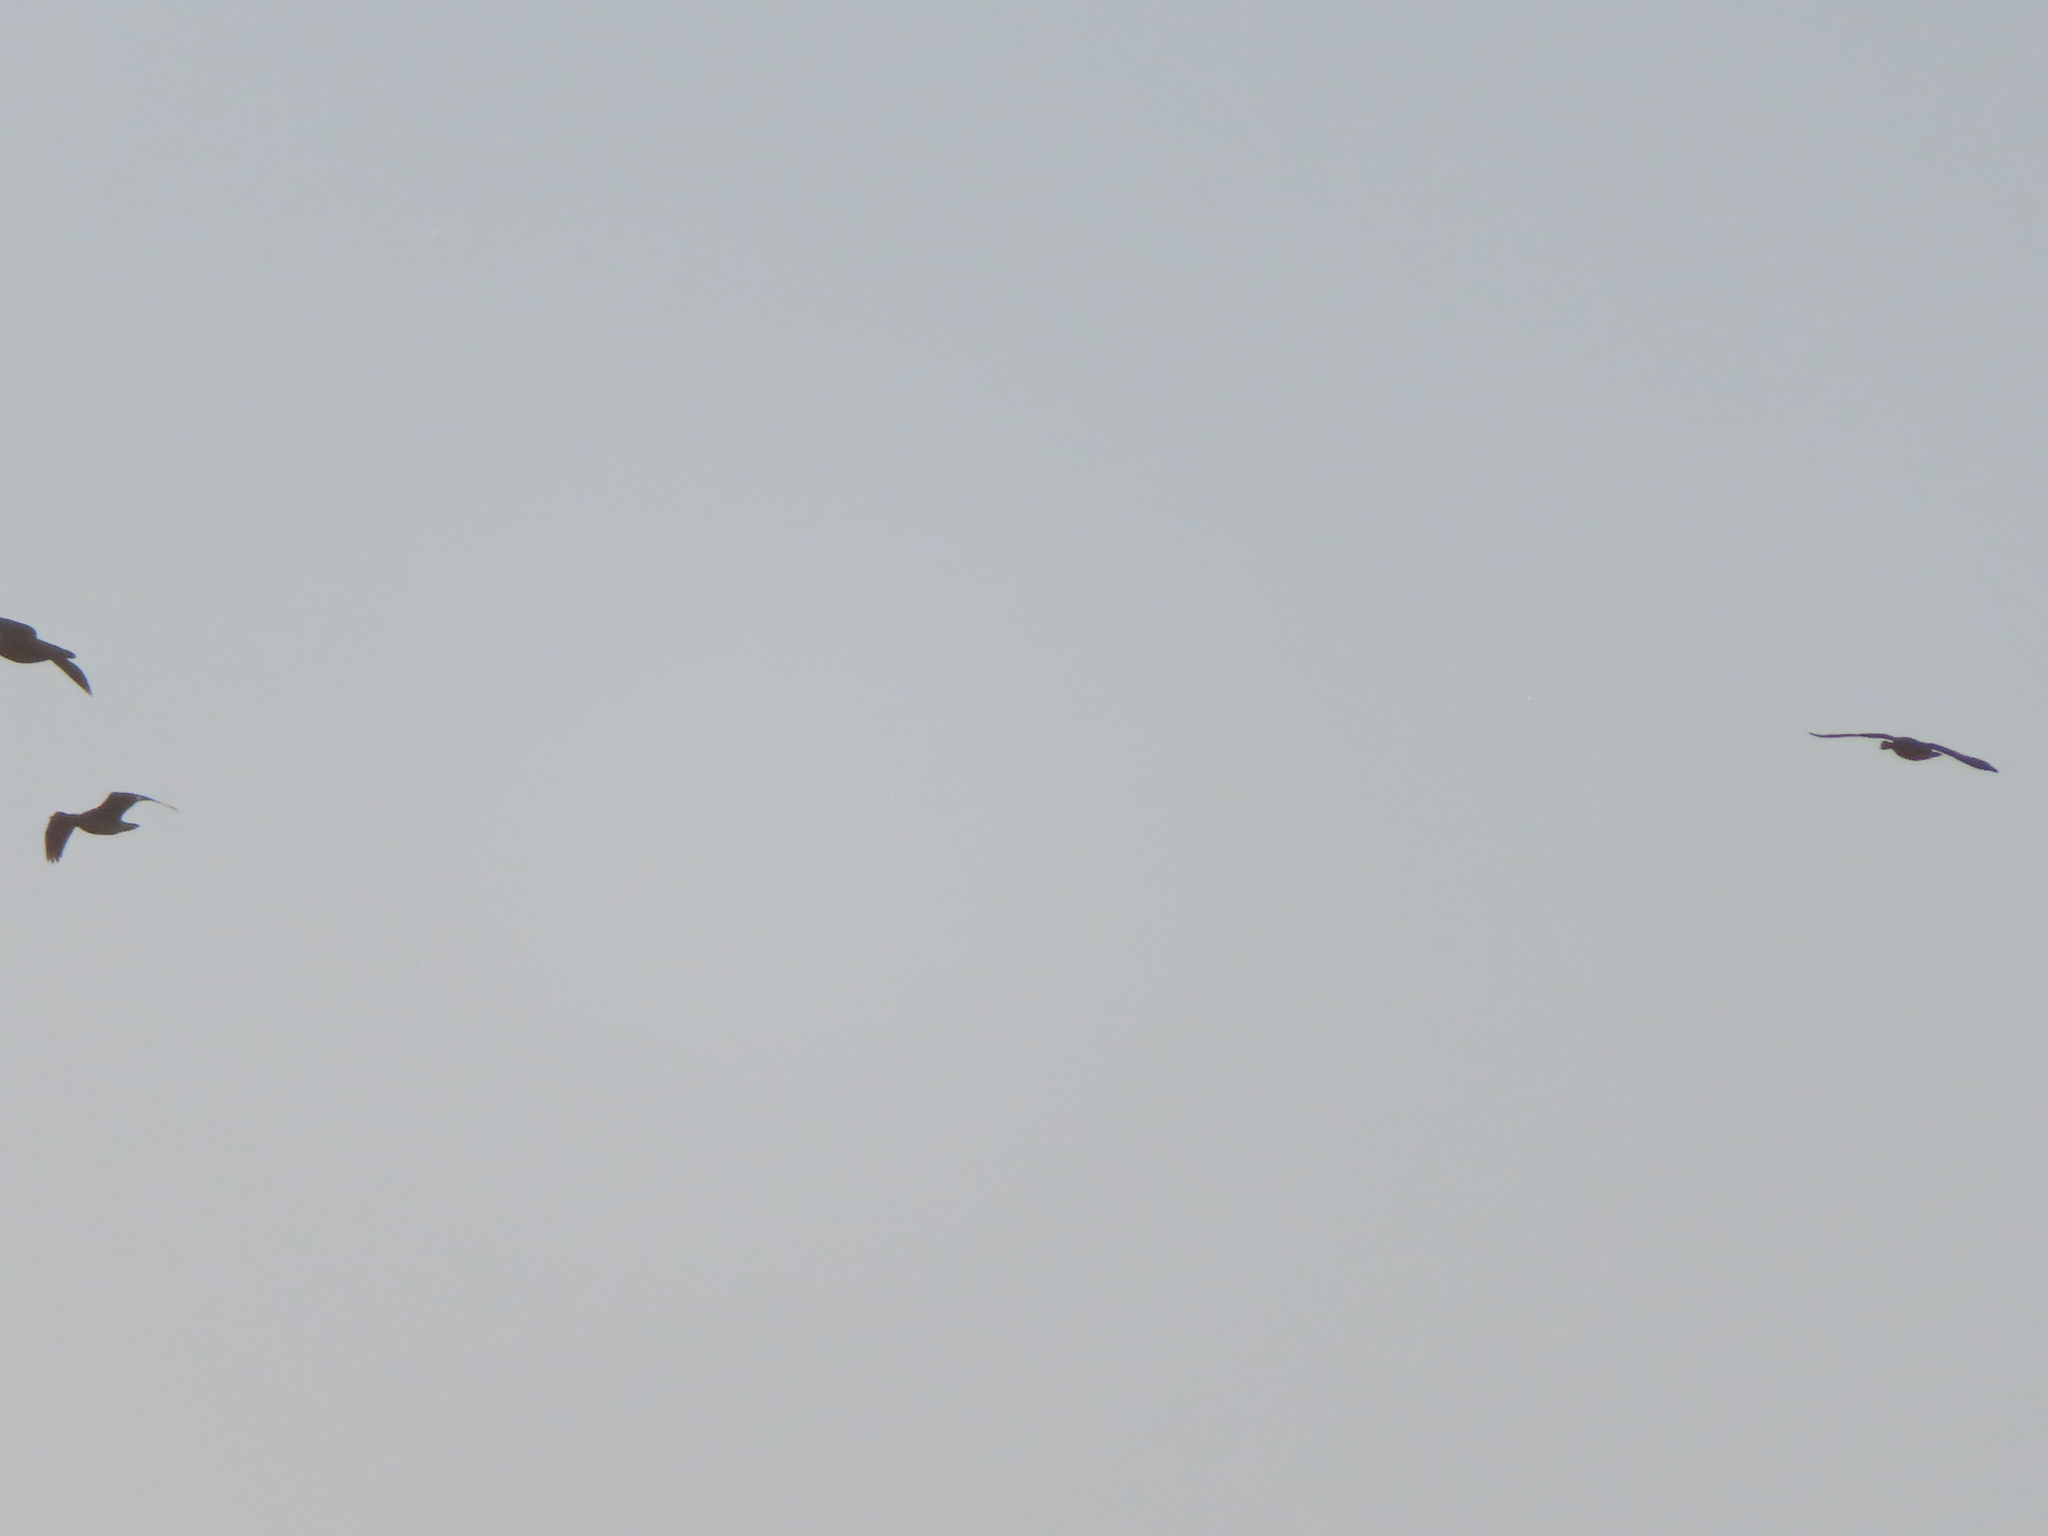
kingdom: Animalia
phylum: Chordata
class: Aves
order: Anseriformes
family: Anatidae
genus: Anser
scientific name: Anser caerulescens
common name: Snow goose
